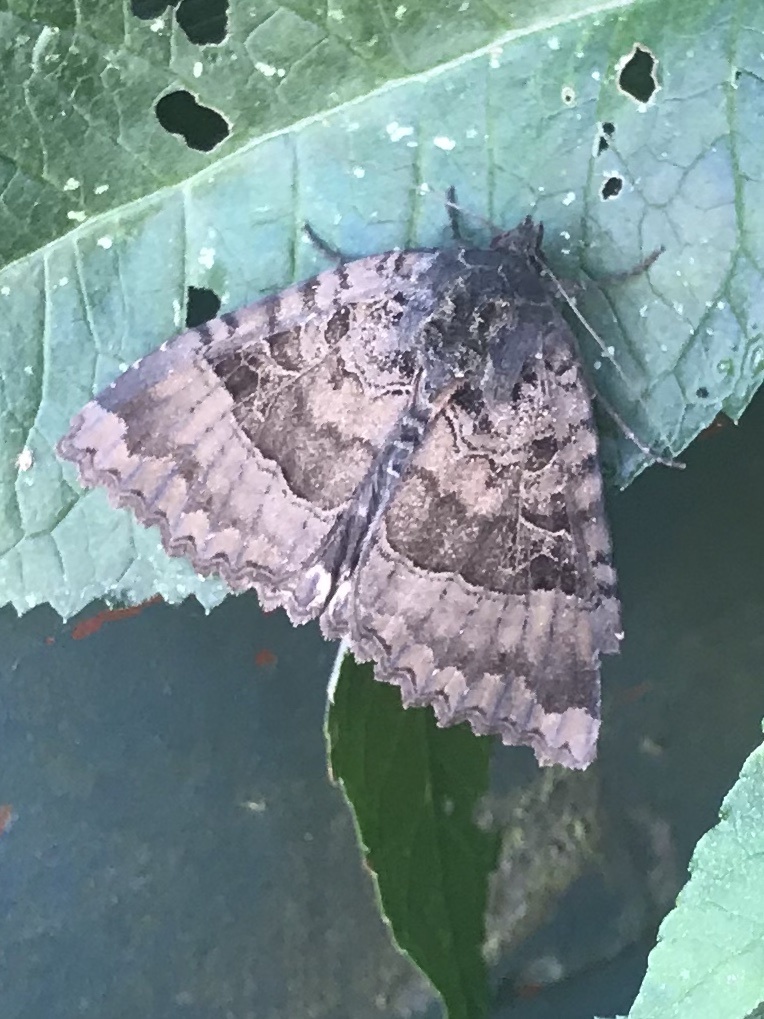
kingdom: Animalia
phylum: Arthropoda
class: Insecta
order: Lepidoptera
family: Noctuidae
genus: Mormo
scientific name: Mormo maura
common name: Old lady
